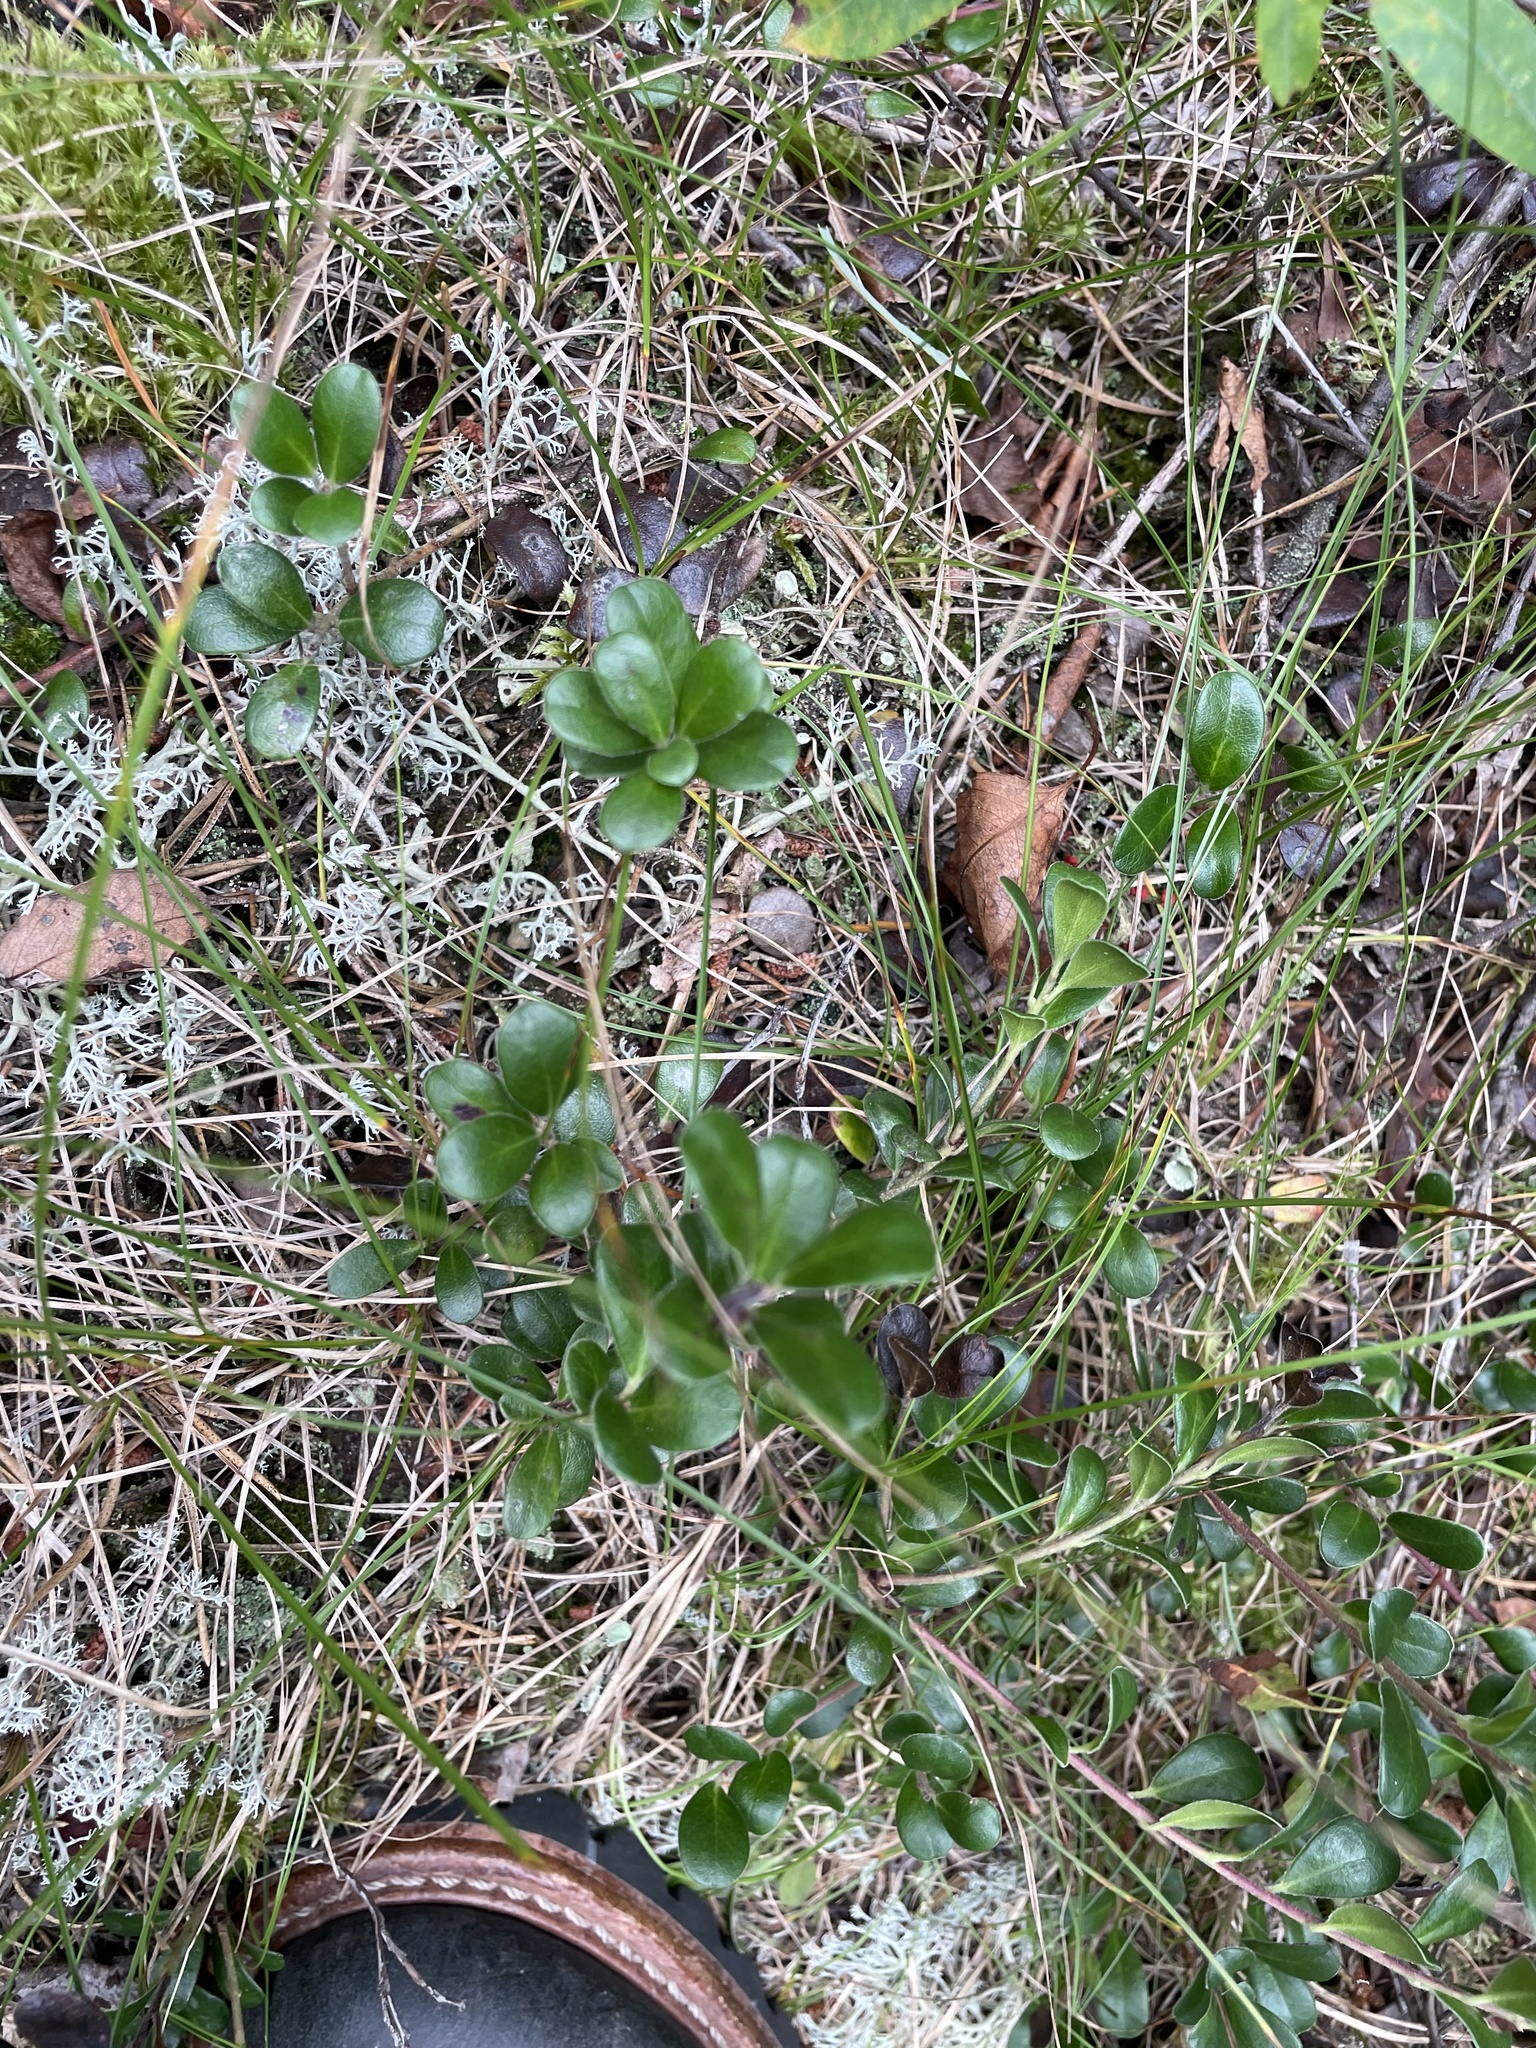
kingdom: Plantae
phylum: Tracheophyta
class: Magnoliopsida
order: Ericales
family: Ericaceae
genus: Arctostaphylos
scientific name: Arctostaphylos uva-ursi
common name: Bearberry
